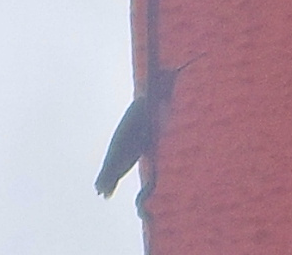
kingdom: Animalia
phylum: Chordata
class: Aves
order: Apodiformes
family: Trochilidae
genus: Archilochus
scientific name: Archilochus alexandri
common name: Black-chinned hummingbird
